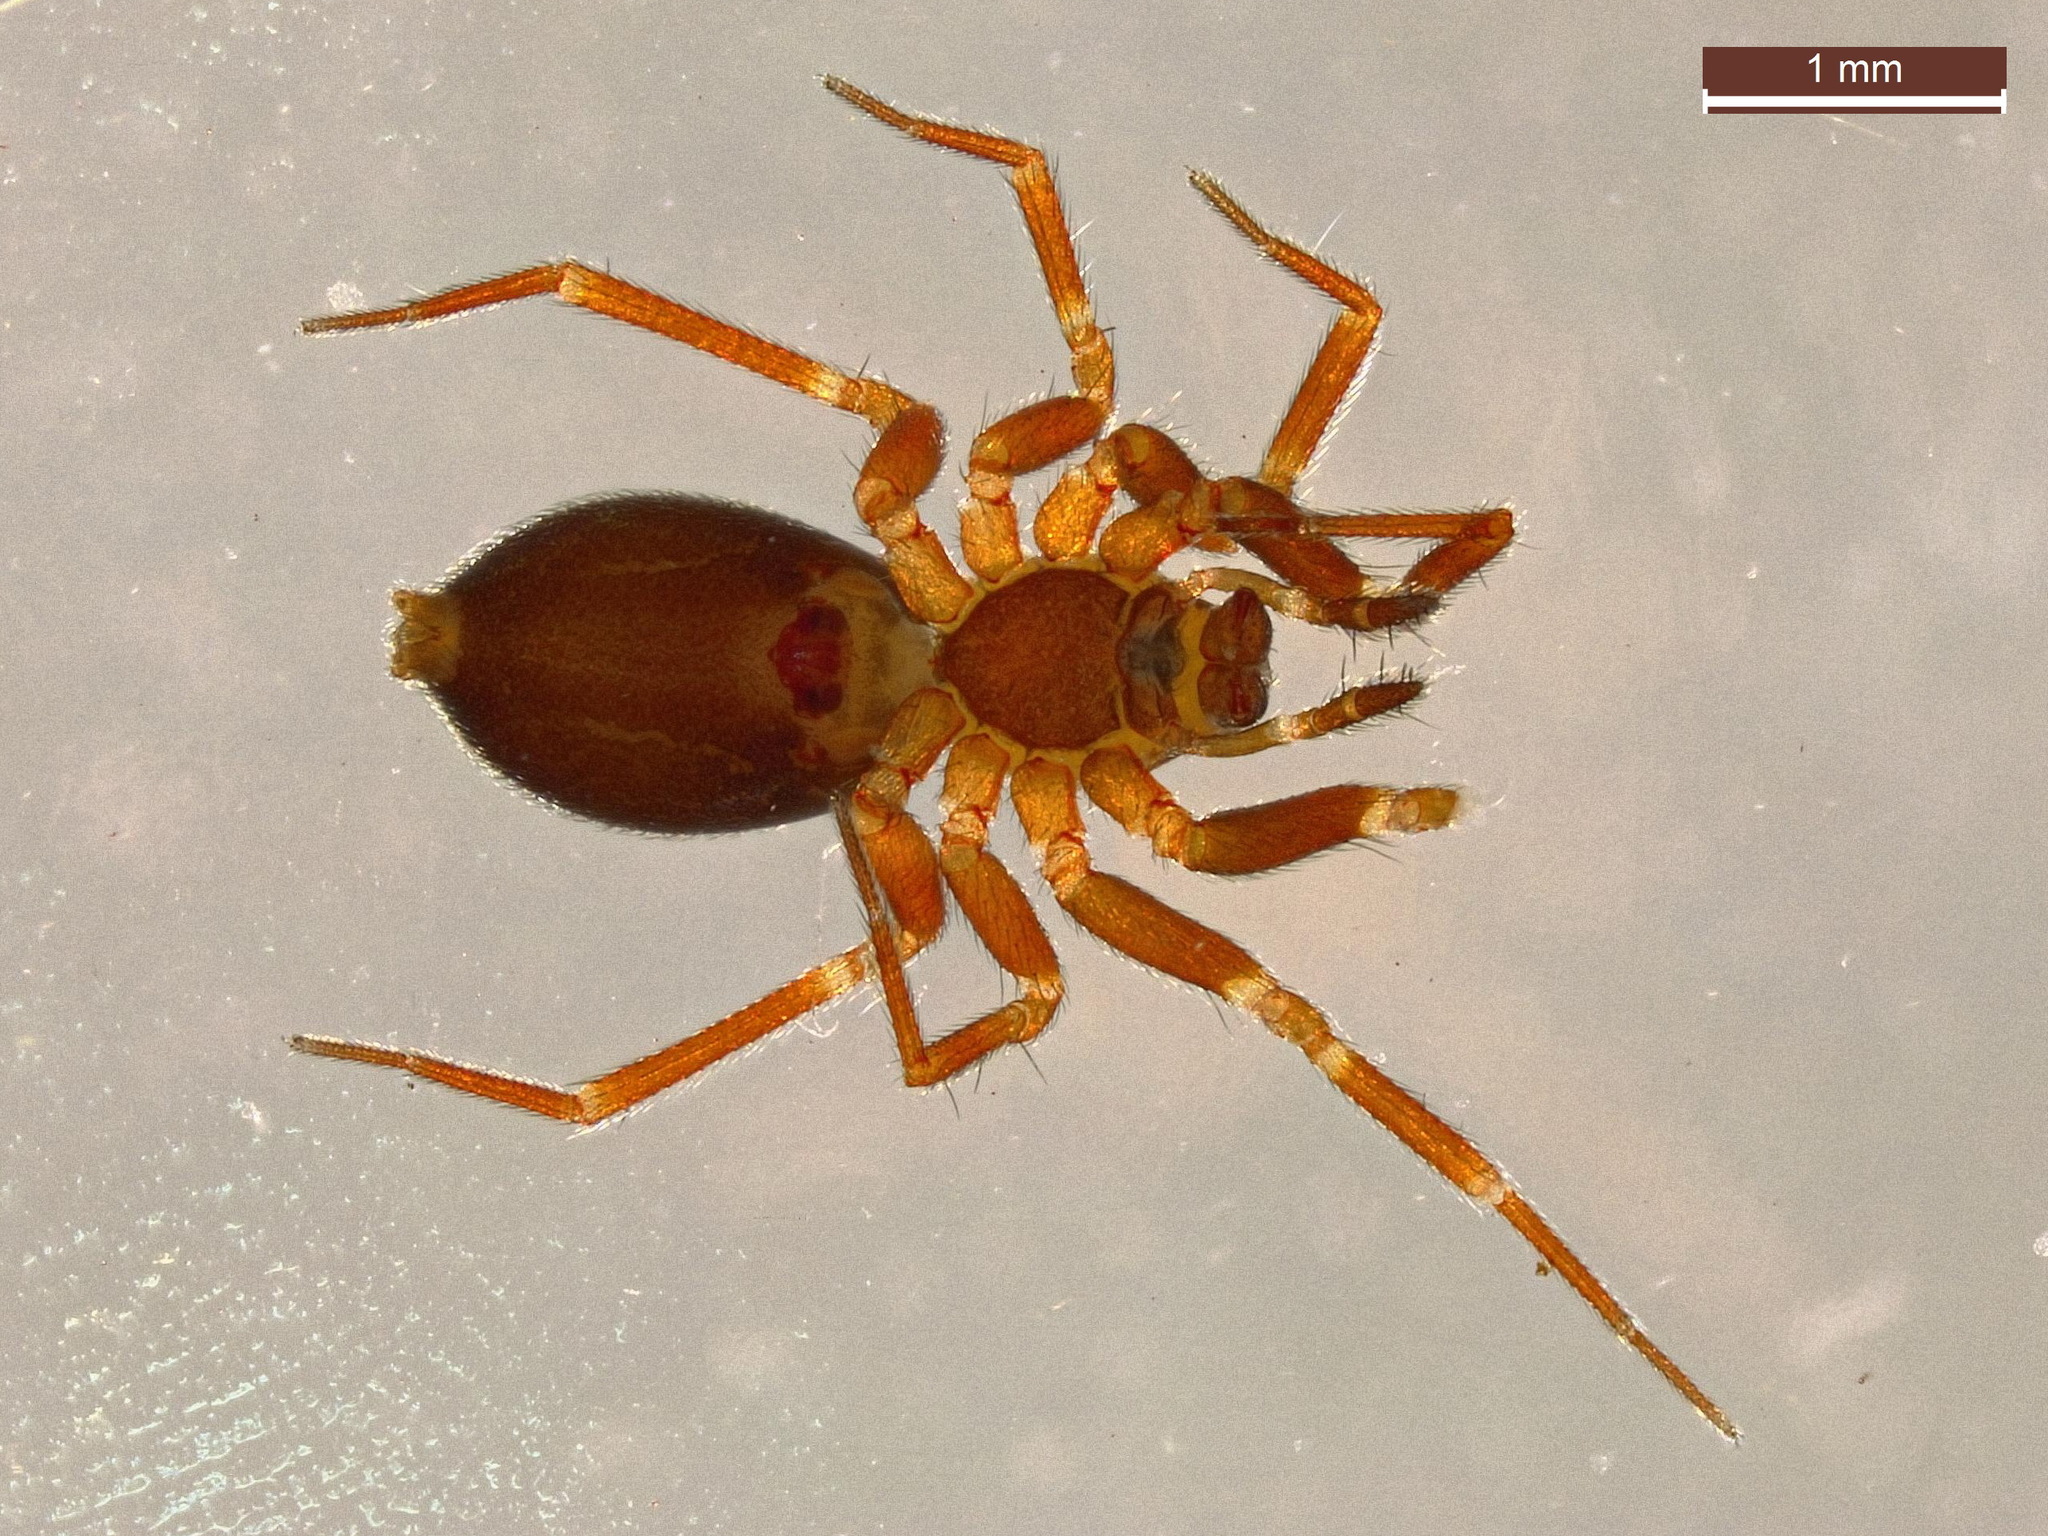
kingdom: Animalia
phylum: Arthropoda
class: Arachnida
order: Araneae
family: Linyphiidae
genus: Microneta
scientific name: Microneta viaria
